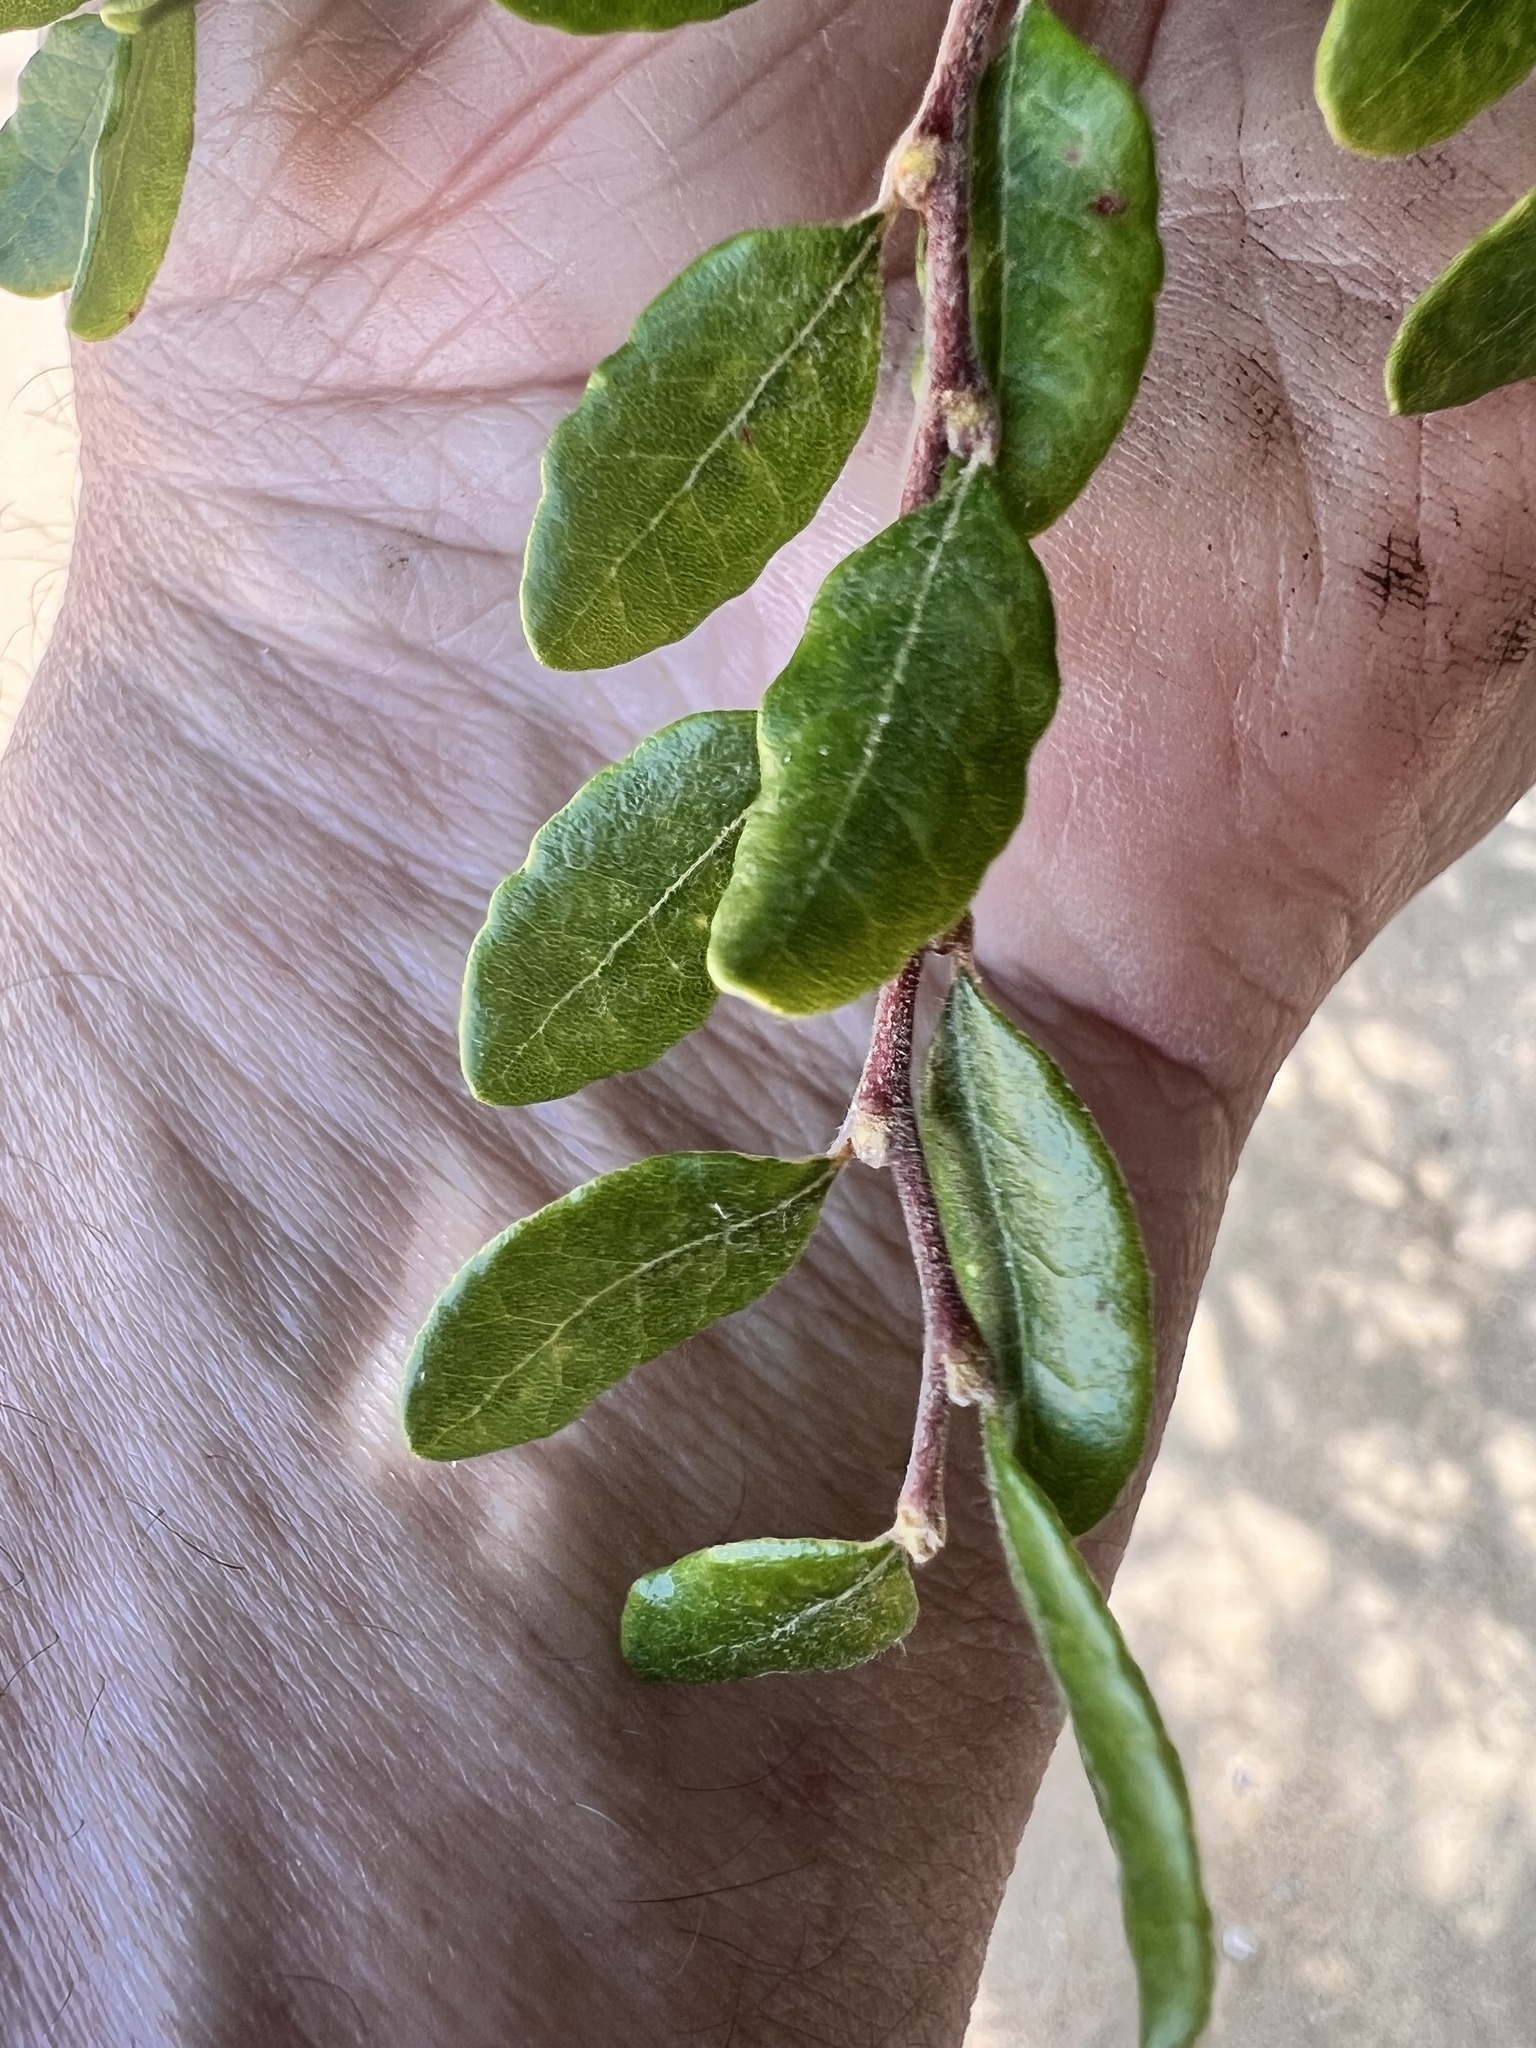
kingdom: Plantae
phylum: Tracheophyta
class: Magnoliopsida
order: Fagales
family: Nothofagaceae
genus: Nothofagus
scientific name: Nothofagus solandri
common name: Black beech
